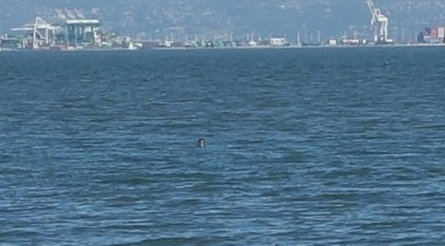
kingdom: Animalia
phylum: Chordata
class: Mammalia
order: Carnivora
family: Phocidae
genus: Phoca
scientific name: Phoca vitulina
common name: Harbor seal
